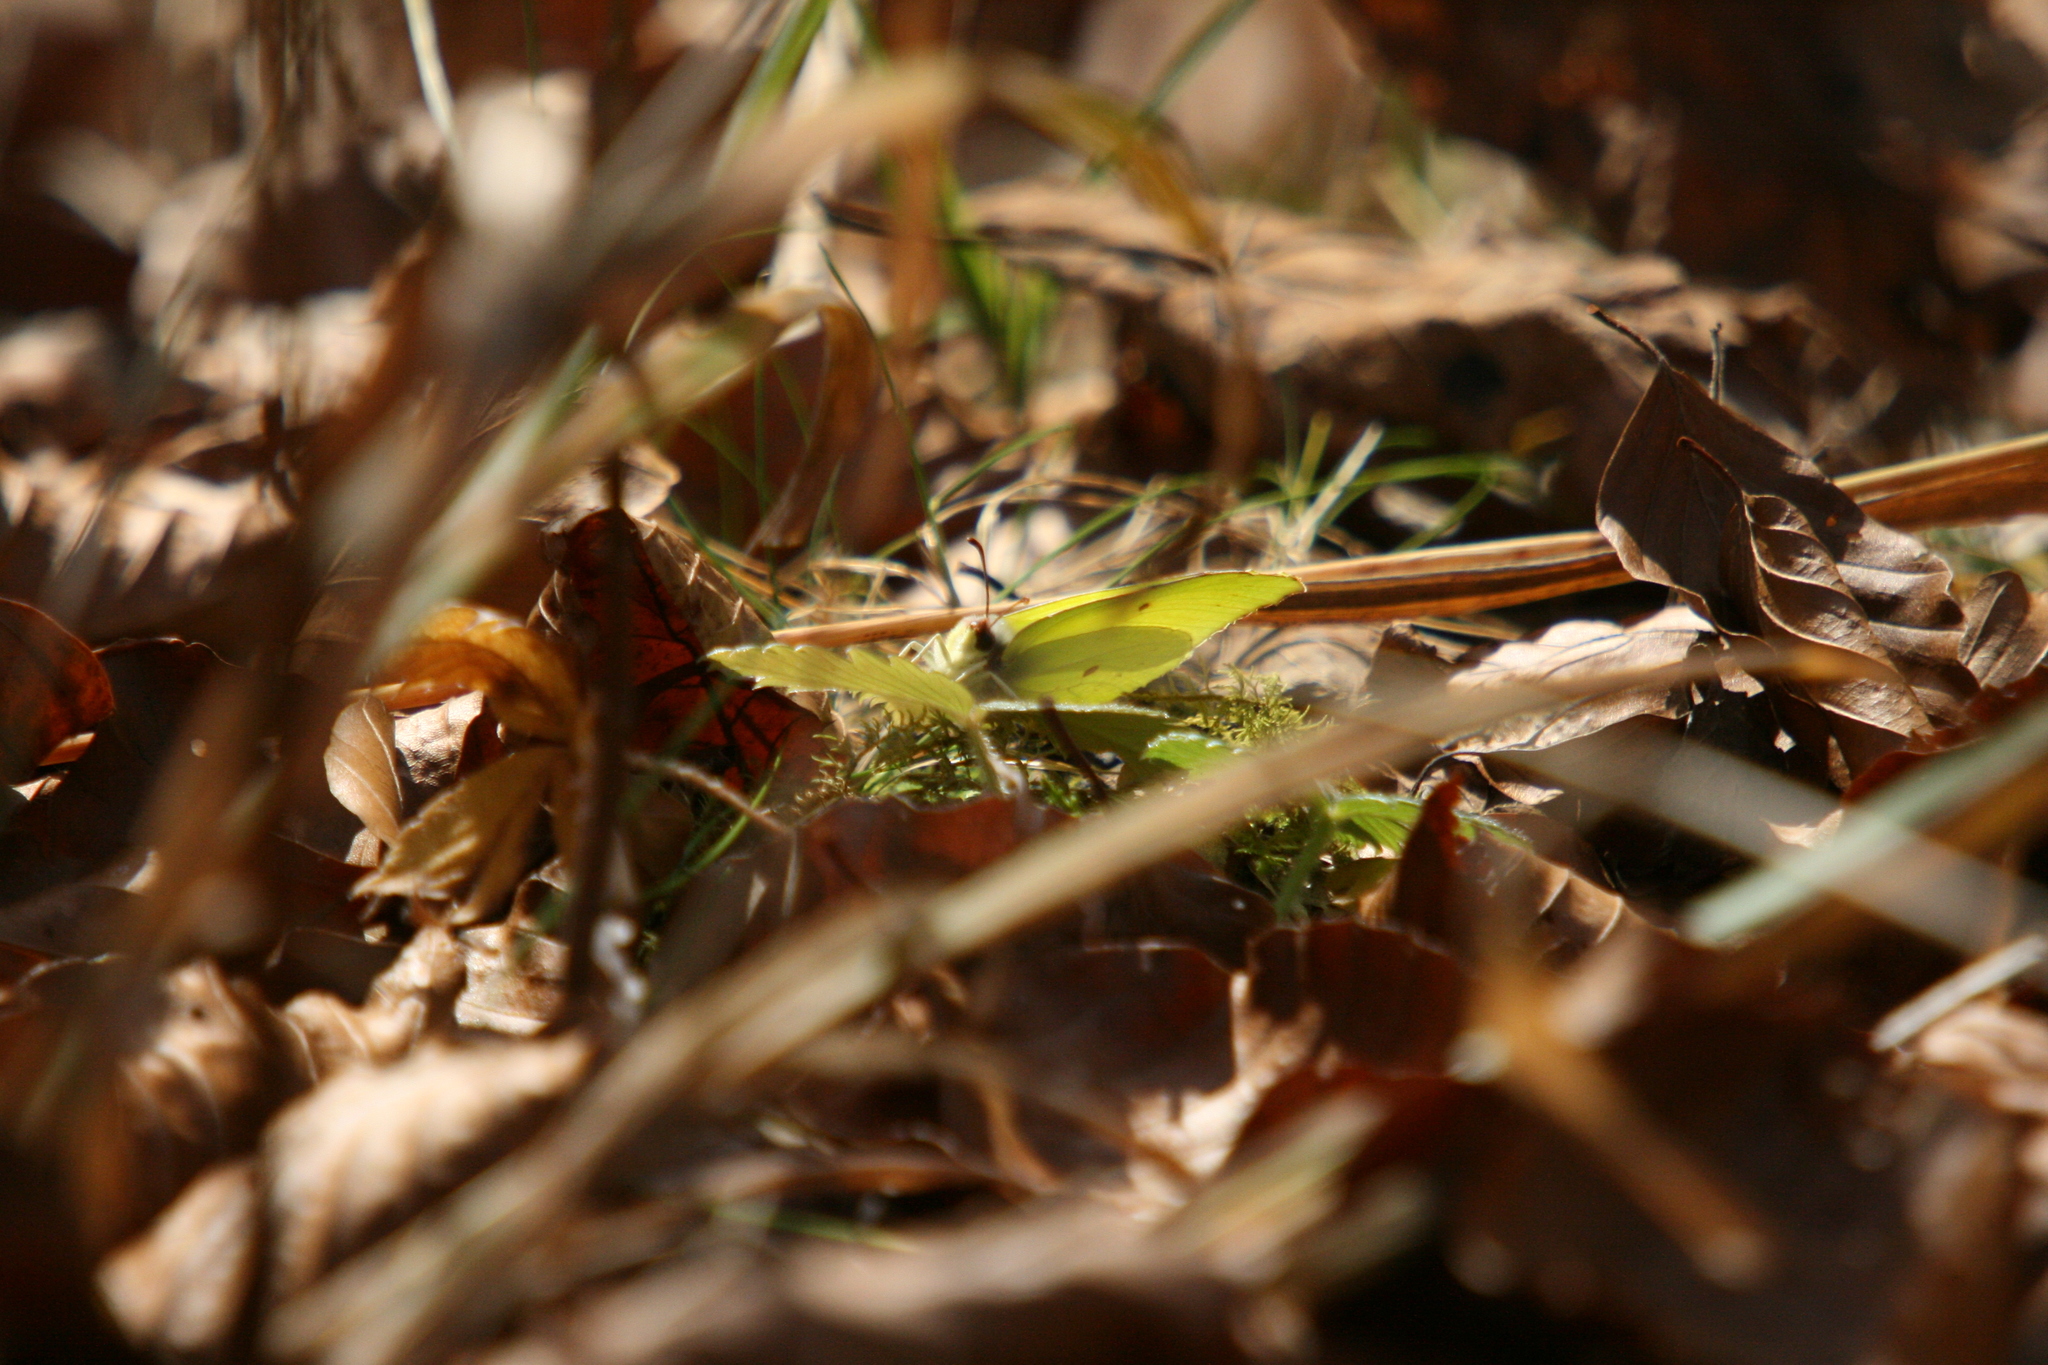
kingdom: Animalia
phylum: Arthropoda
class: Insecta
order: Lepidoptera
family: Pieridae
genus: Gonepteryx
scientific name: Gonepteryx rhamni
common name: Brimstone
